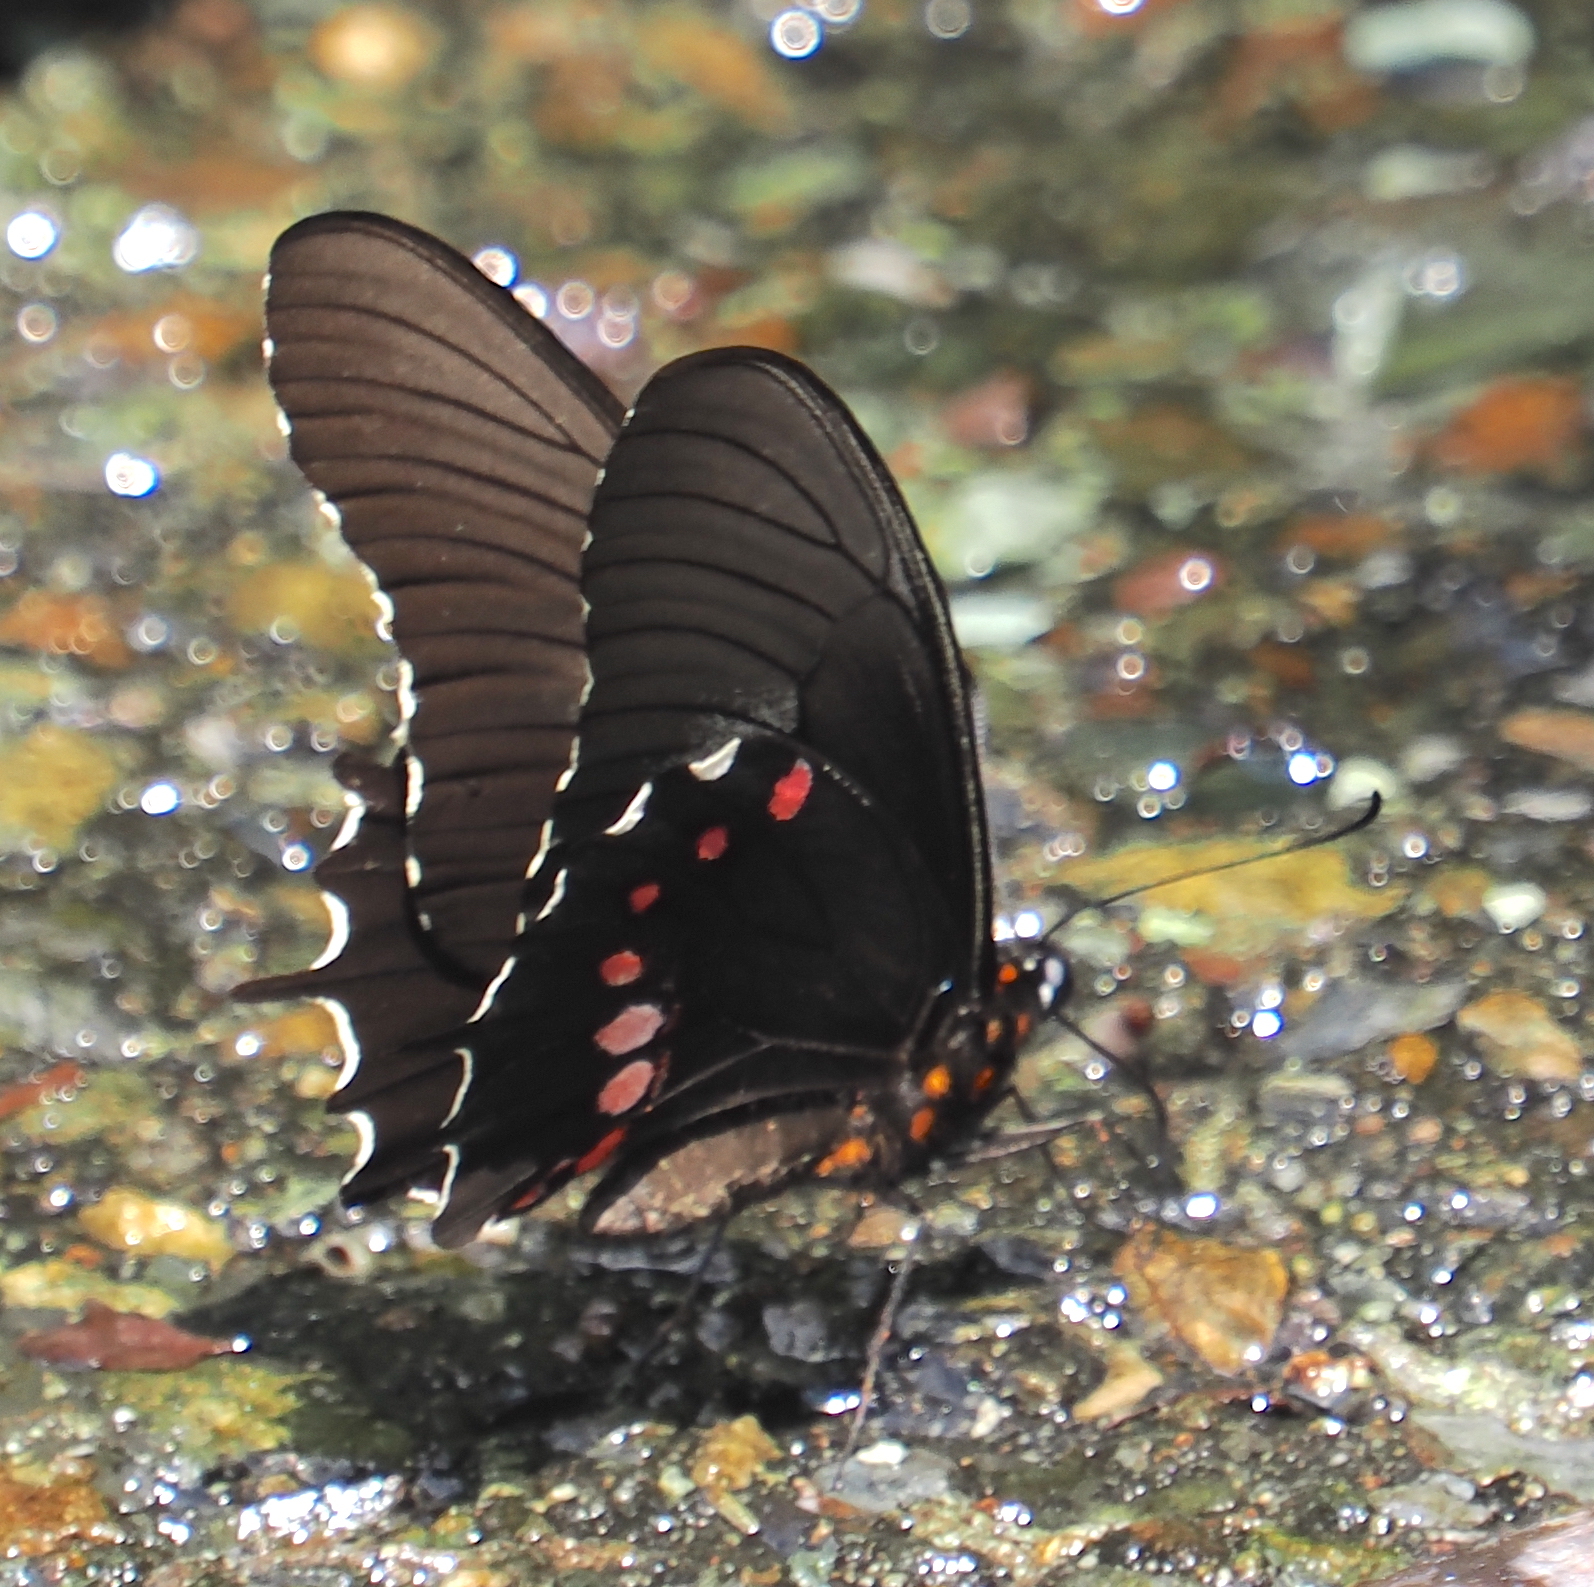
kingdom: Animalia
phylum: Arthropoda
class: Insecta
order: Lepidoptera
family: Papilionidae
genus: Heraclides
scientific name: Heraclides
